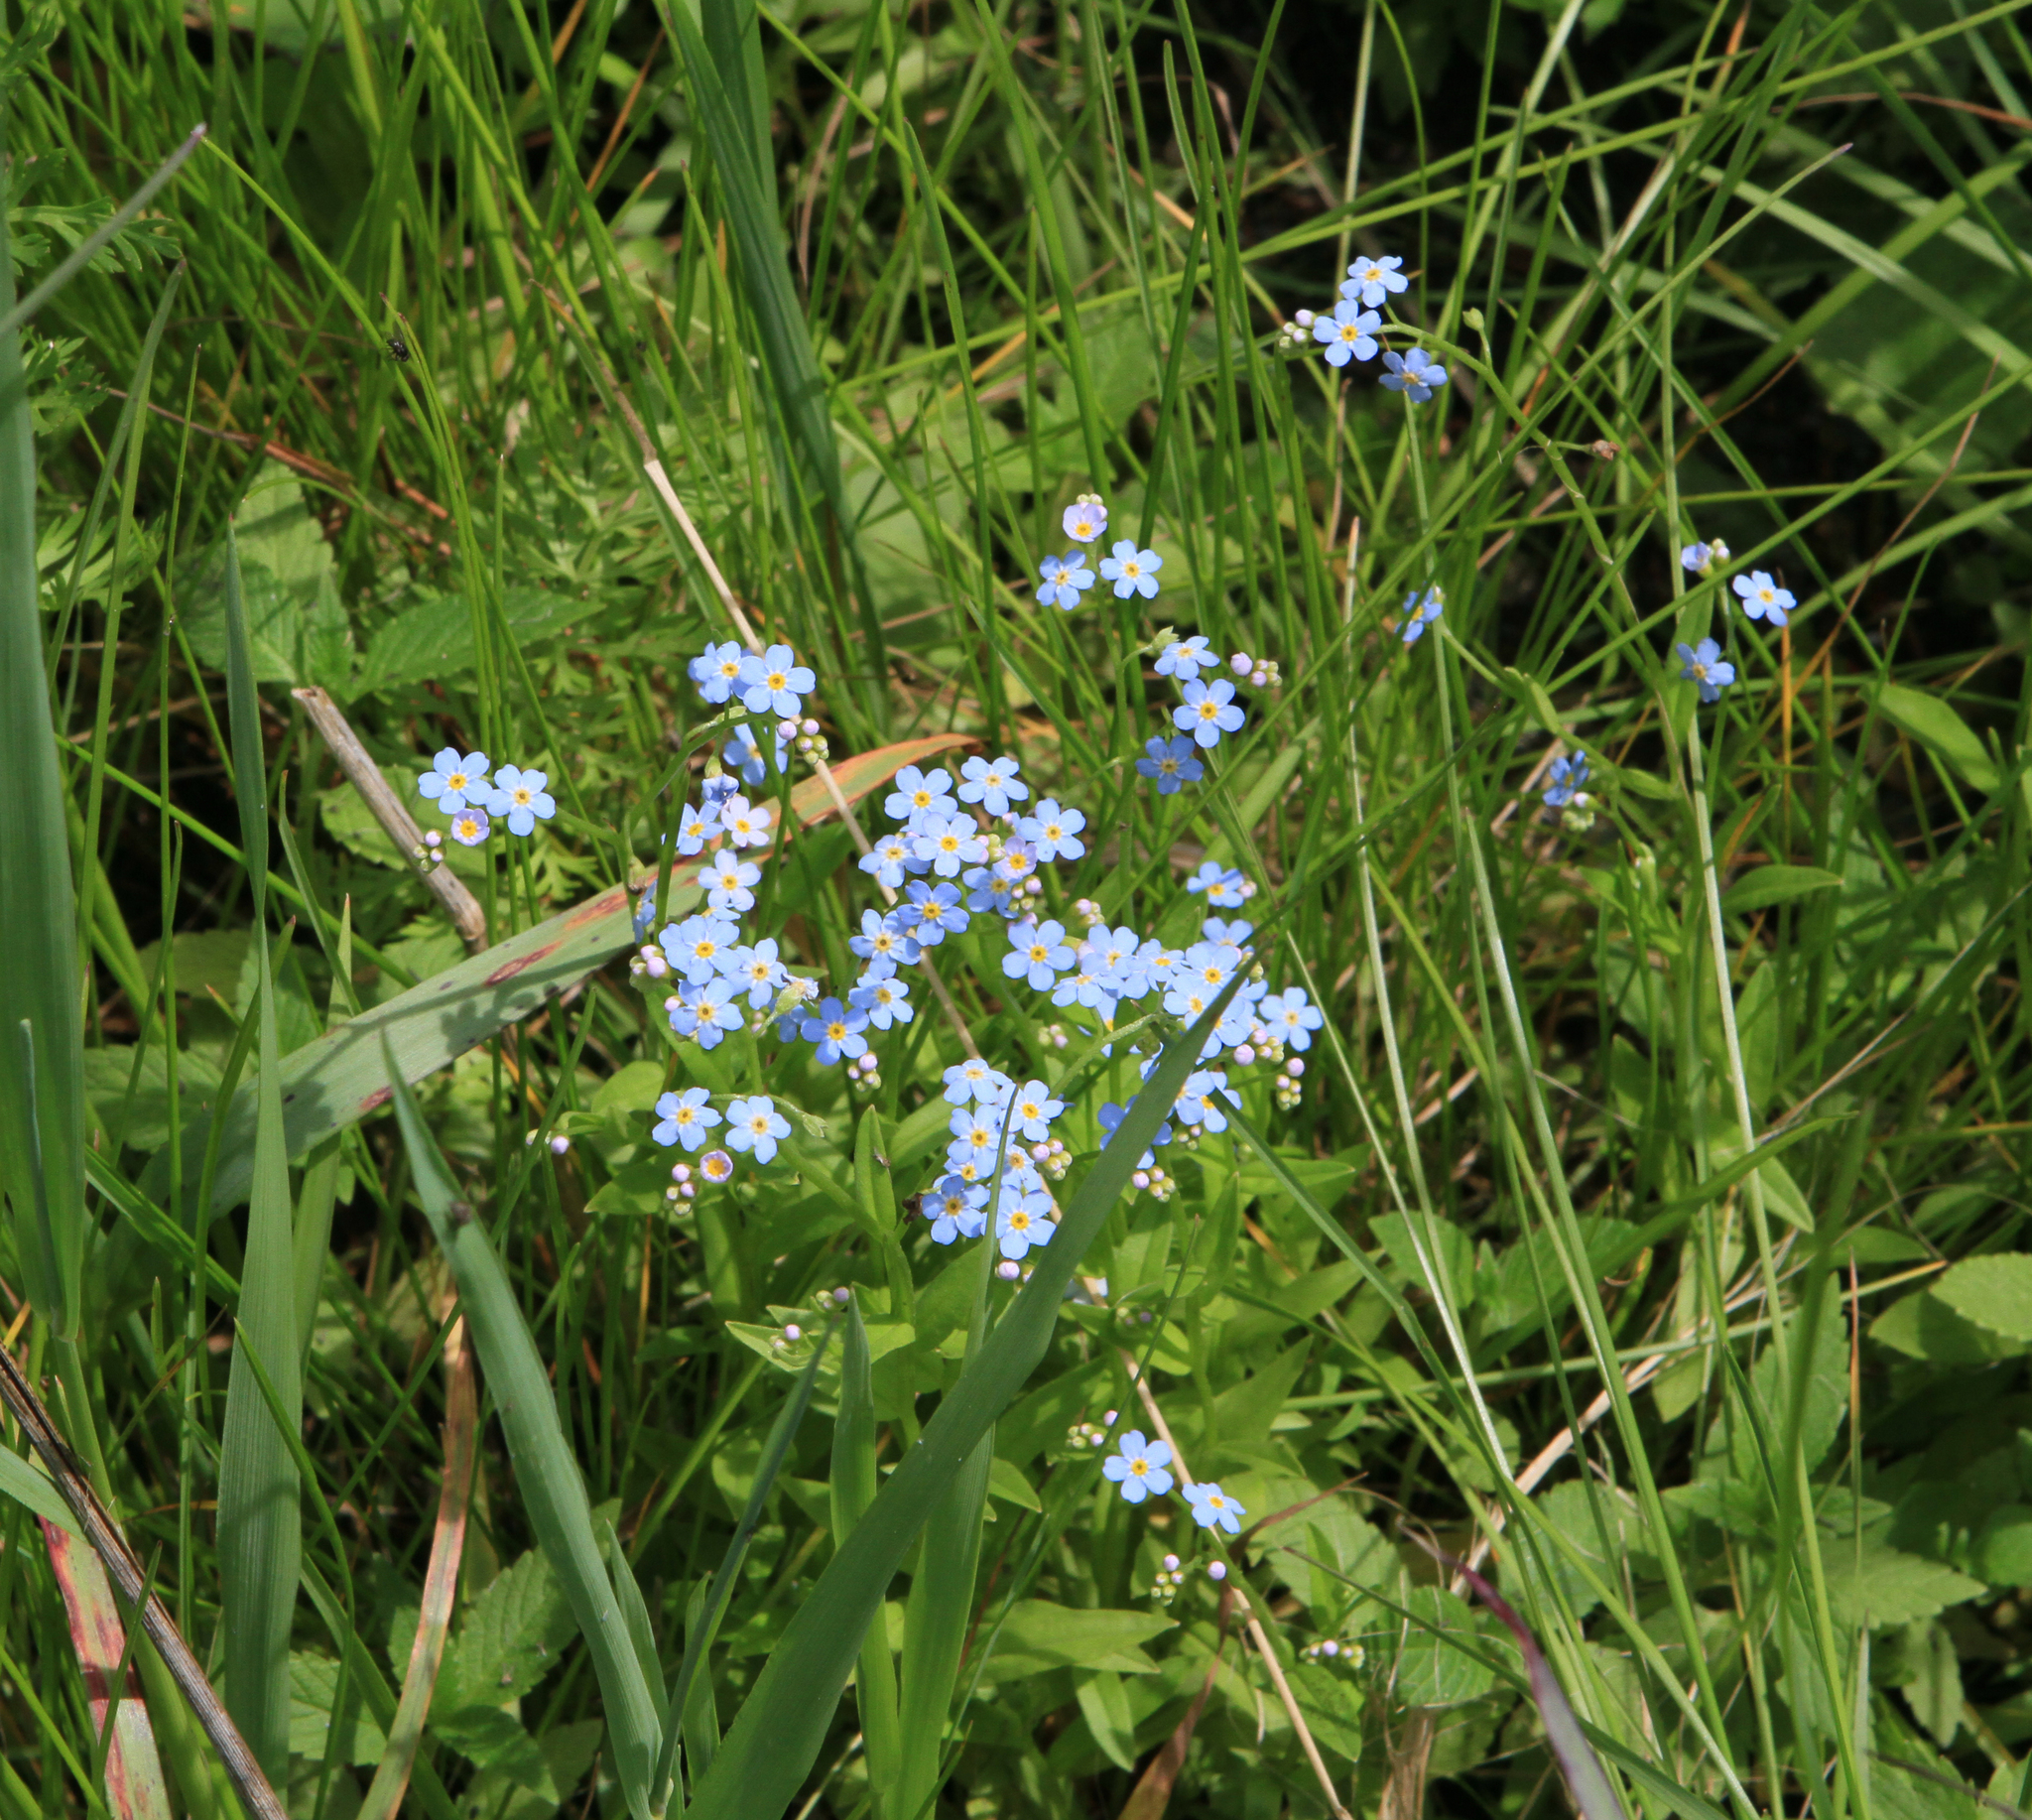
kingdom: Plantae
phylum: Tracheophyta
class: Magnoliopsida
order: Boraginales
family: Boraginaceae
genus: Myosotis
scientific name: Myosotis scorpioides
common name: Water forget-me-not
